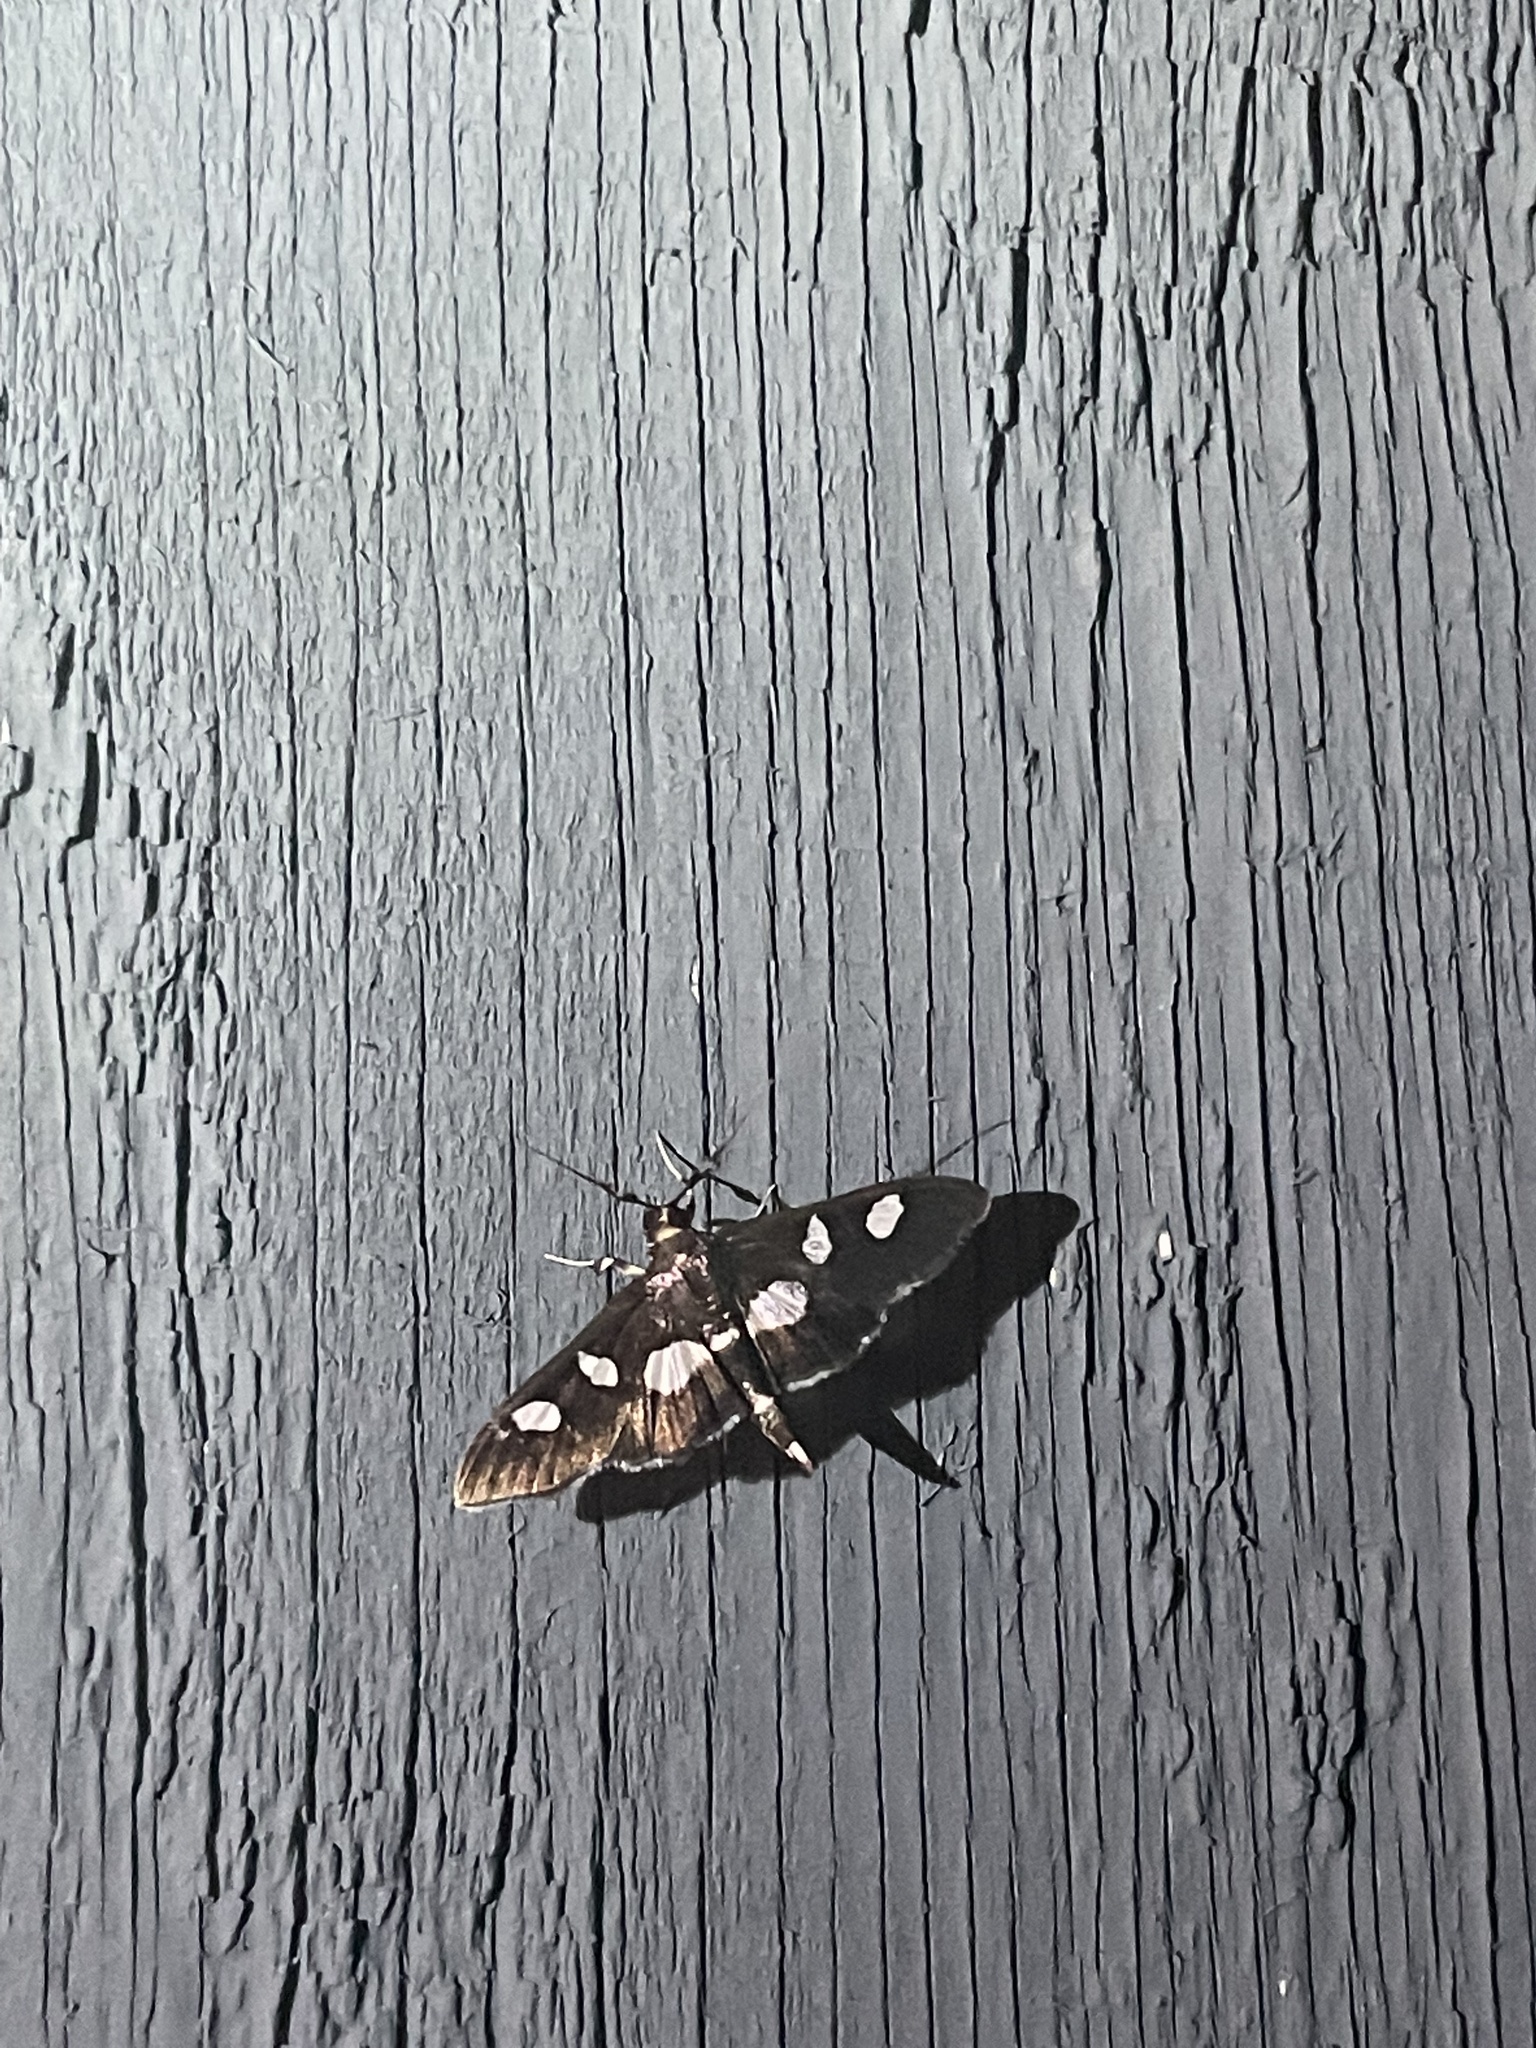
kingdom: Animalia
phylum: Arthropoda
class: Insecta
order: Lepidoptera
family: Crambidae
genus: Desmia
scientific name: Desmia
